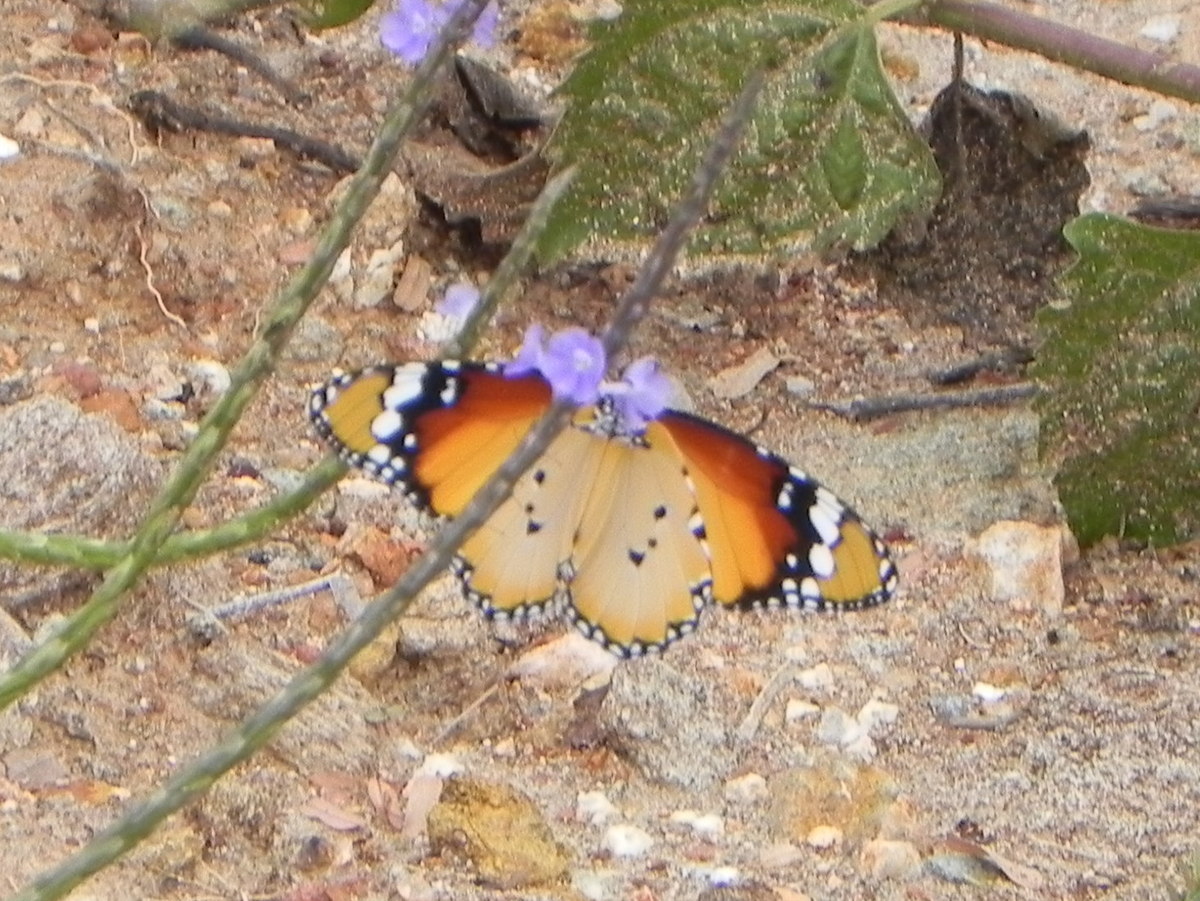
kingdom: Animalia
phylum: Arthropoda
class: Insecta
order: Lepidoptera
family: Nymphalidae
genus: Danaus
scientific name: Danaus chrysippus
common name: Plain tiger
